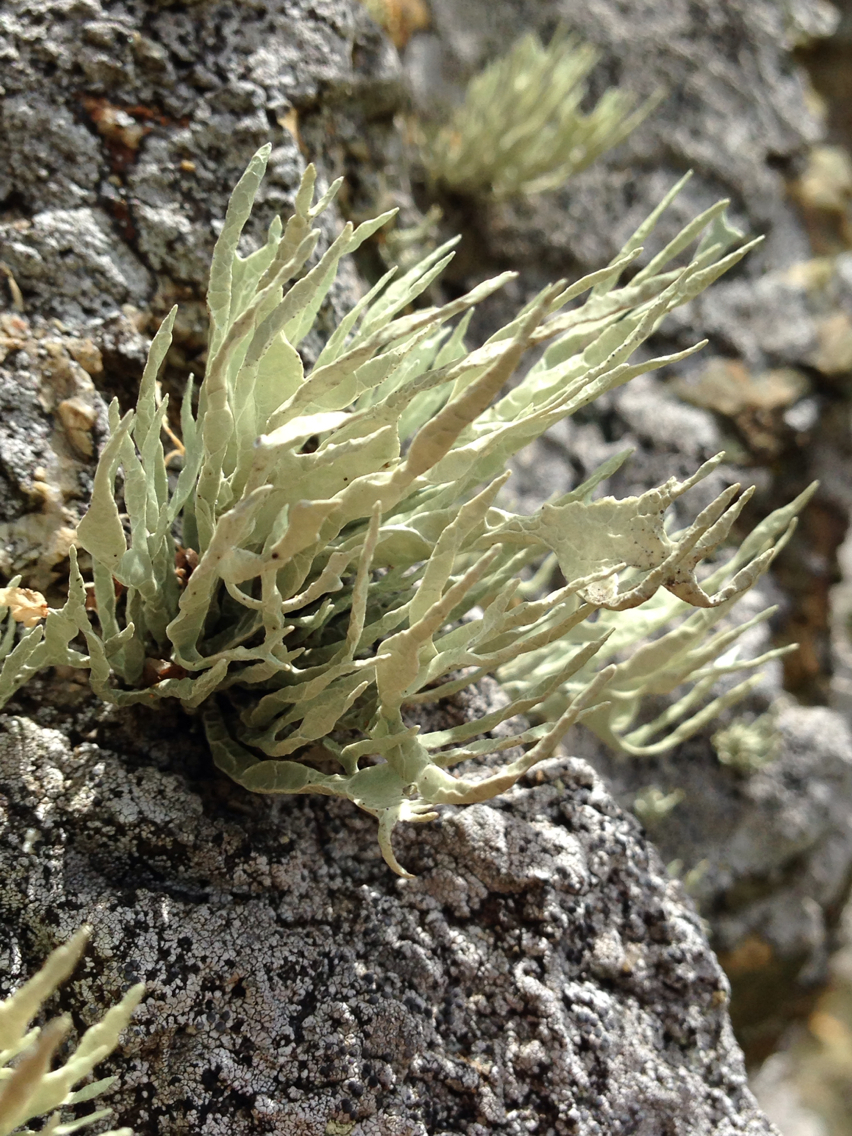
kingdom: Fungi
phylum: Ascomycota
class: Lecanoromycetes
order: Lecanorales
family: Ramalinaceae
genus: Niebla
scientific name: Niebla homalea
